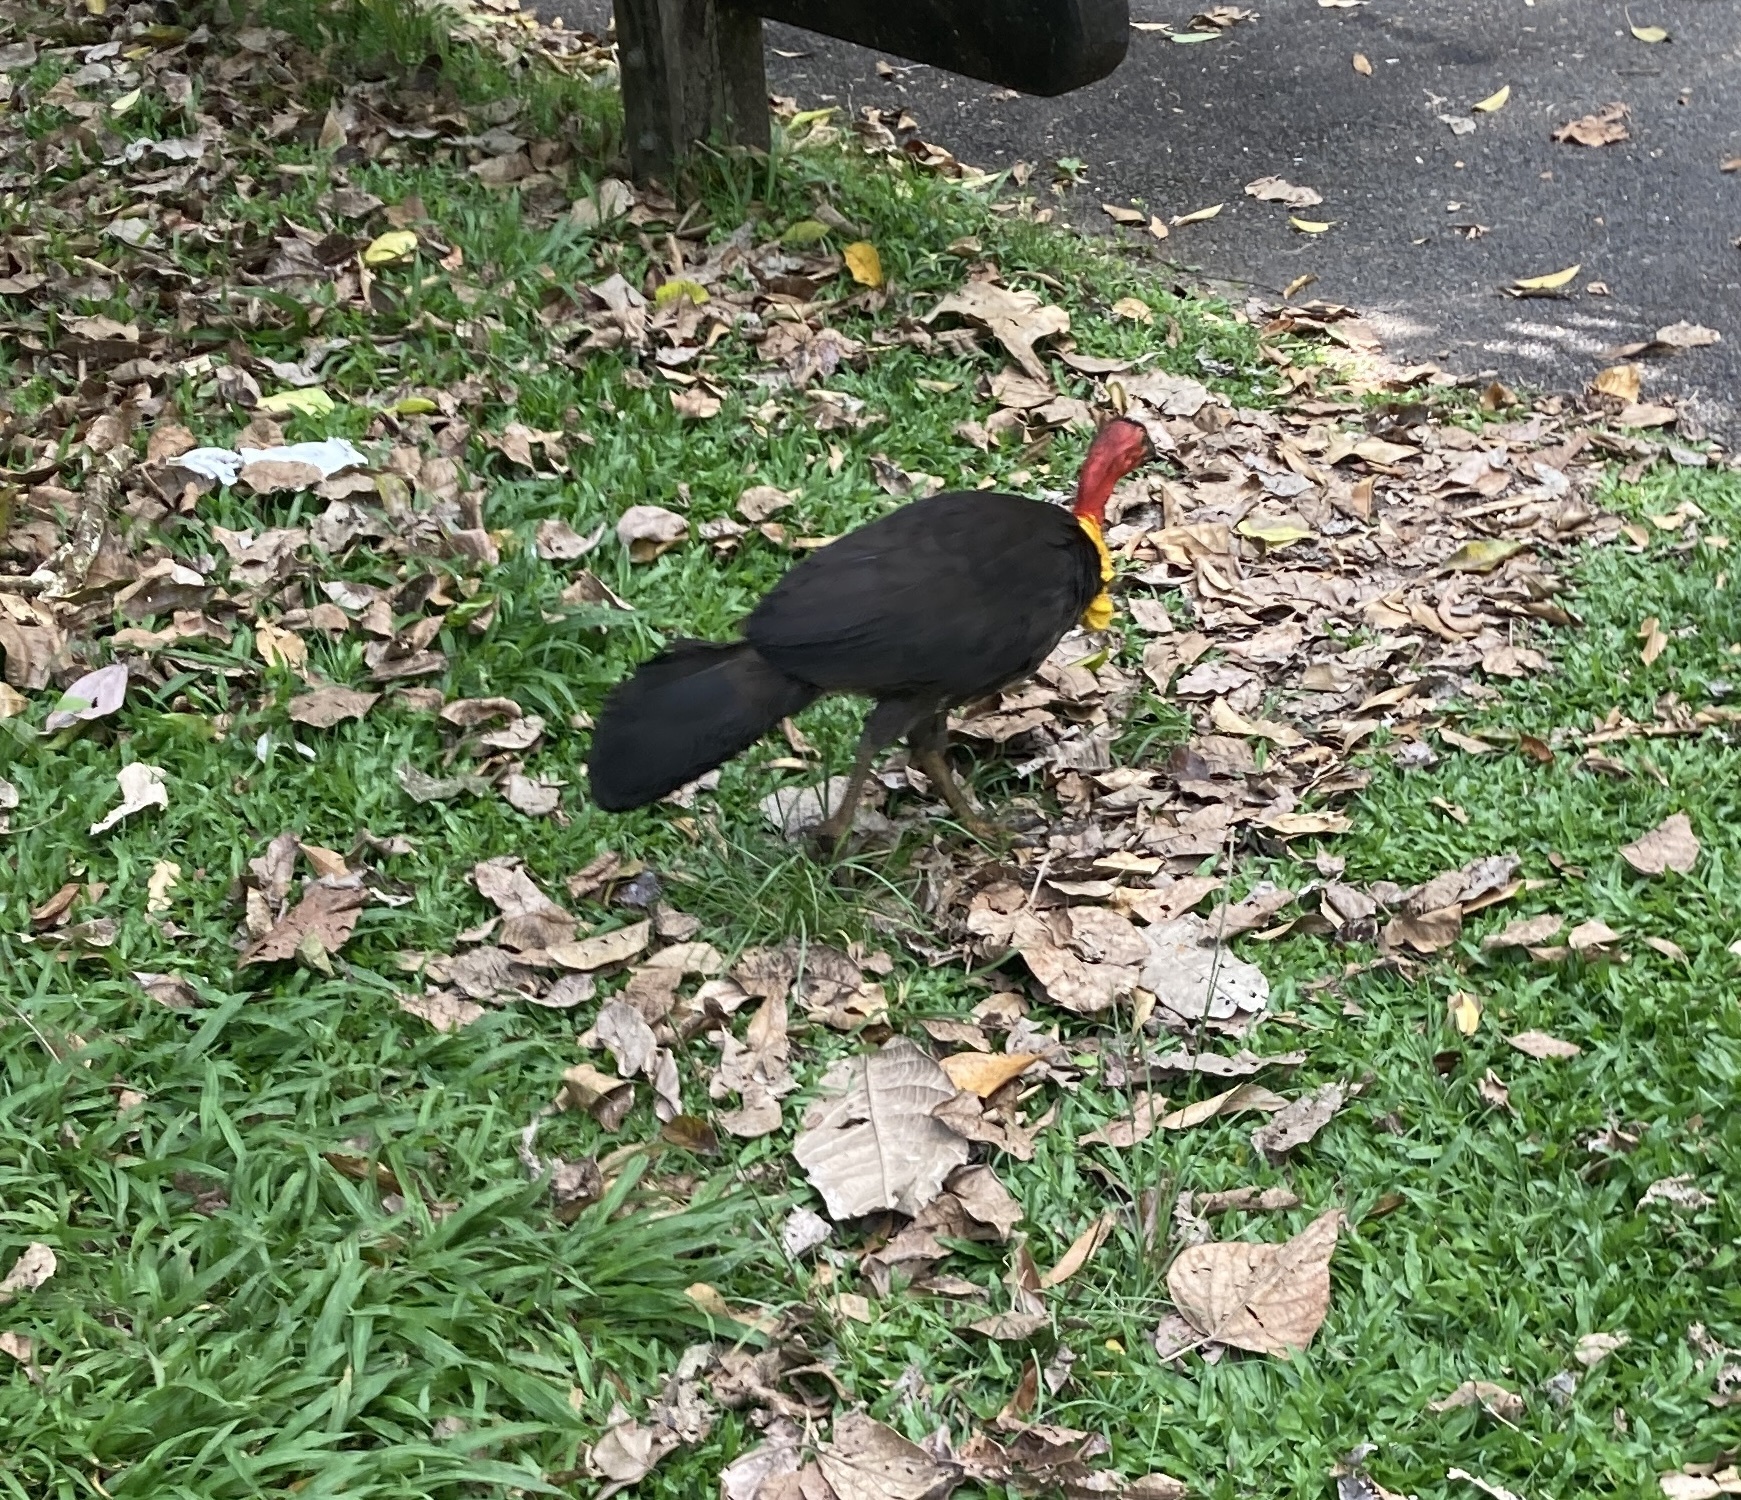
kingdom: Animalia
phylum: Chordata
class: Aves
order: Galliformes
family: Megapodiidae
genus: Alectura
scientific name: Alectura lathami
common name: Australian brushturkey
